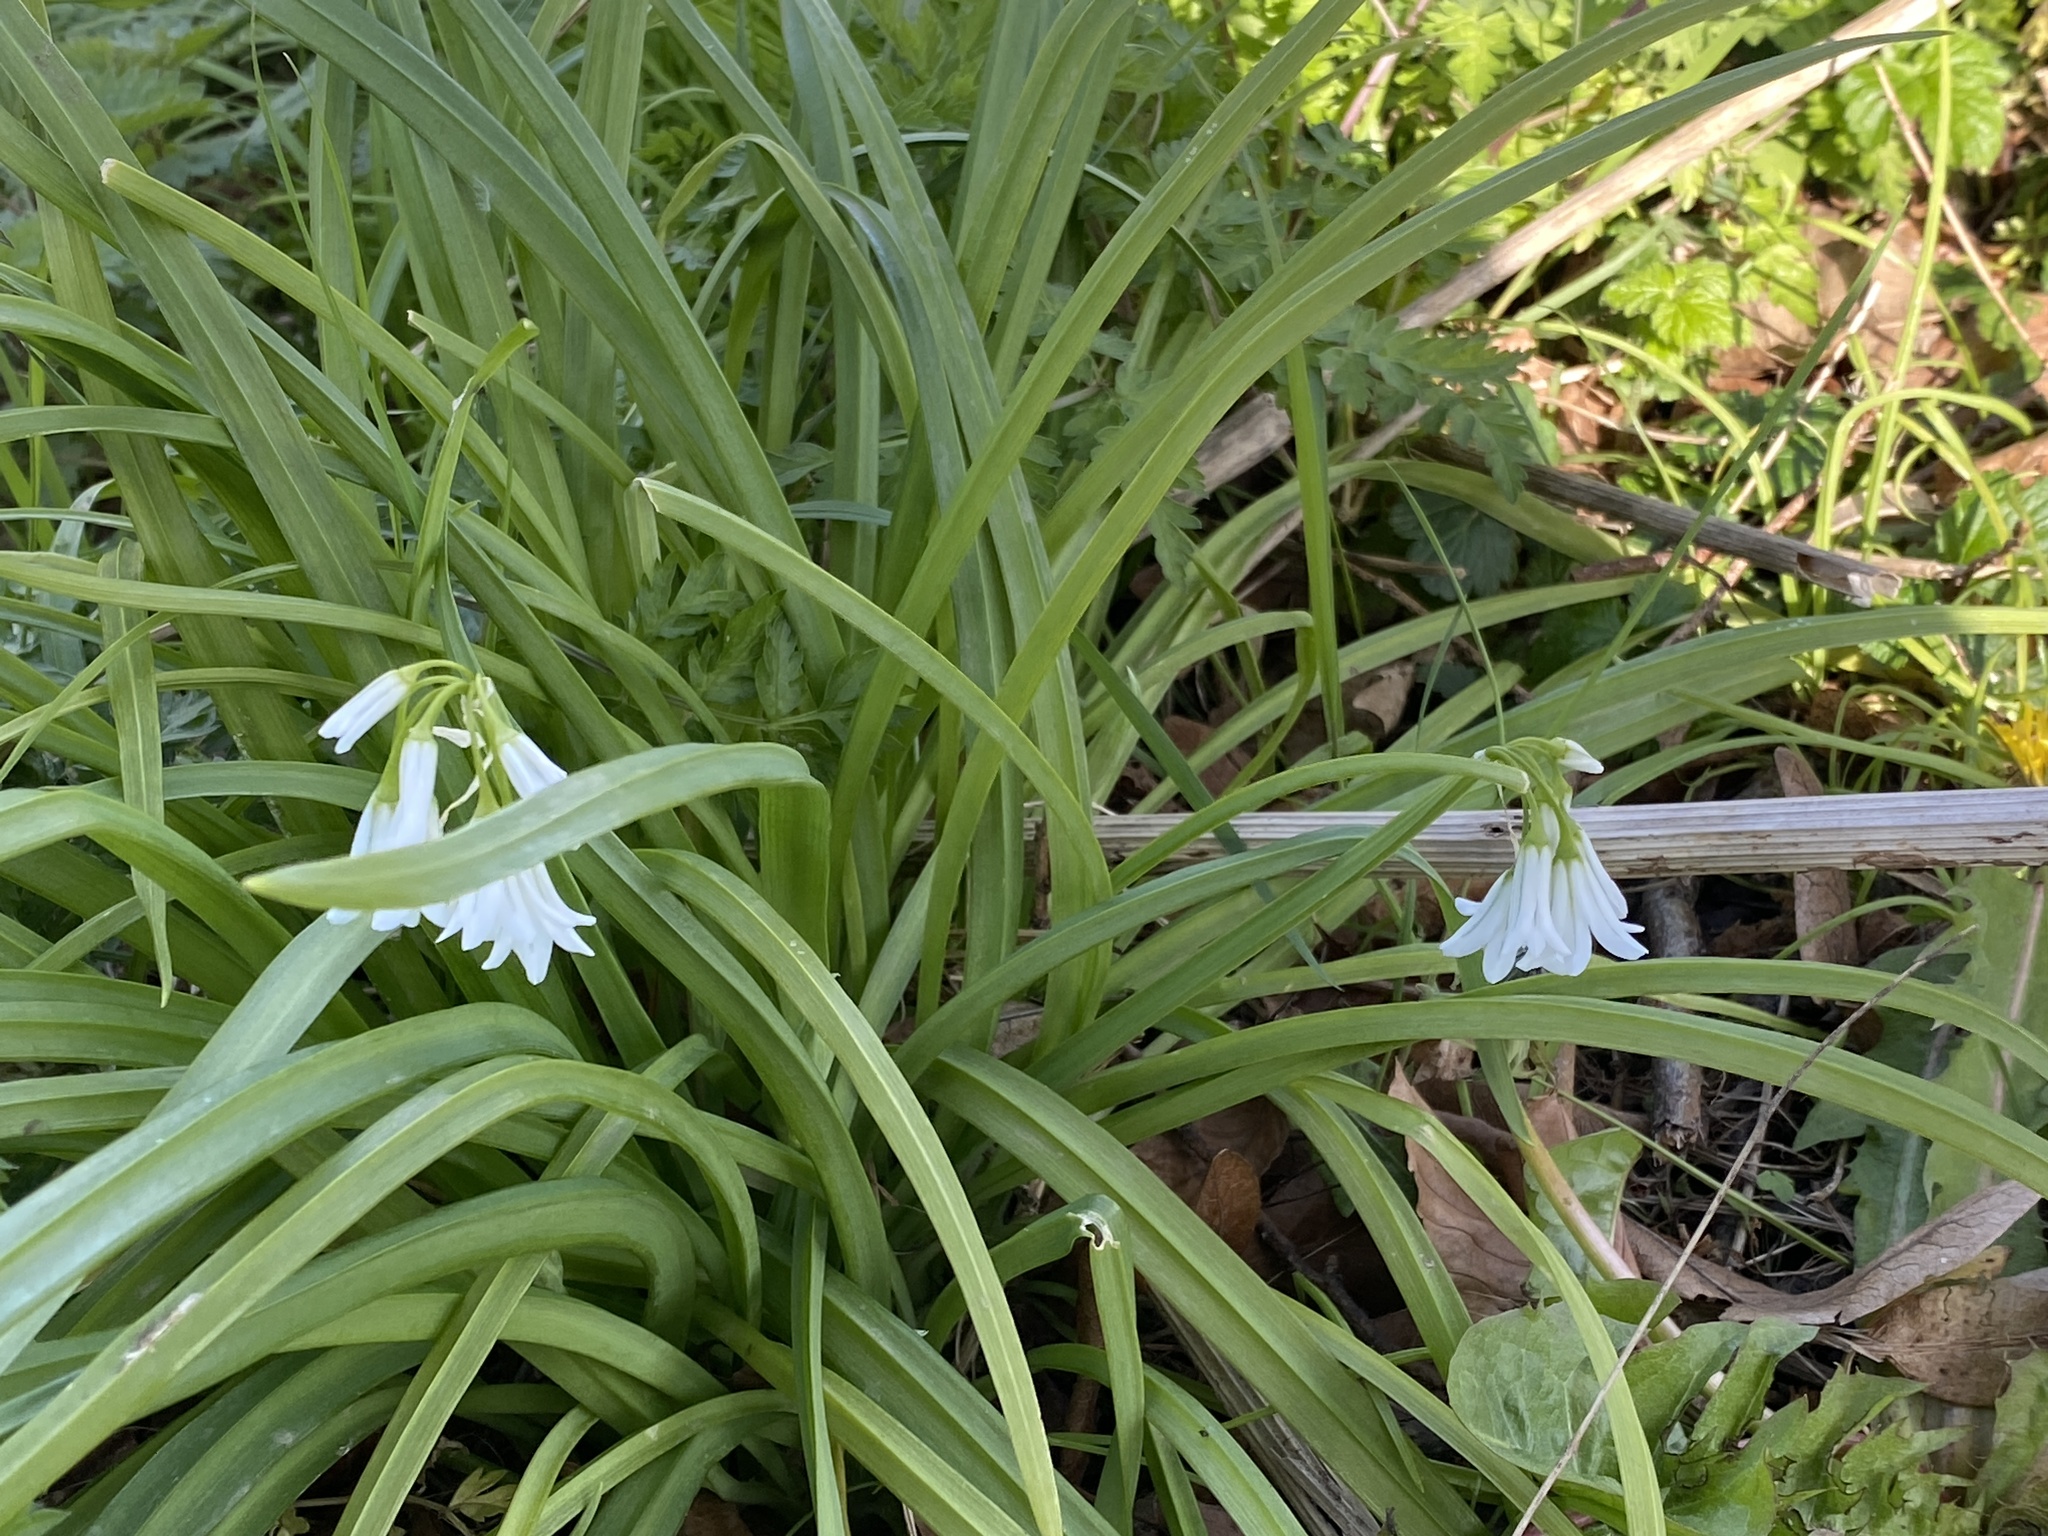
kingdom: Plantae
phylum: Tracheophyta
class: Liliopsida
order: Asparagales
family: Amaryllidaceae
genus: Allium
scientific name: Allium triquetrum
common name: Three-cornered garlic
